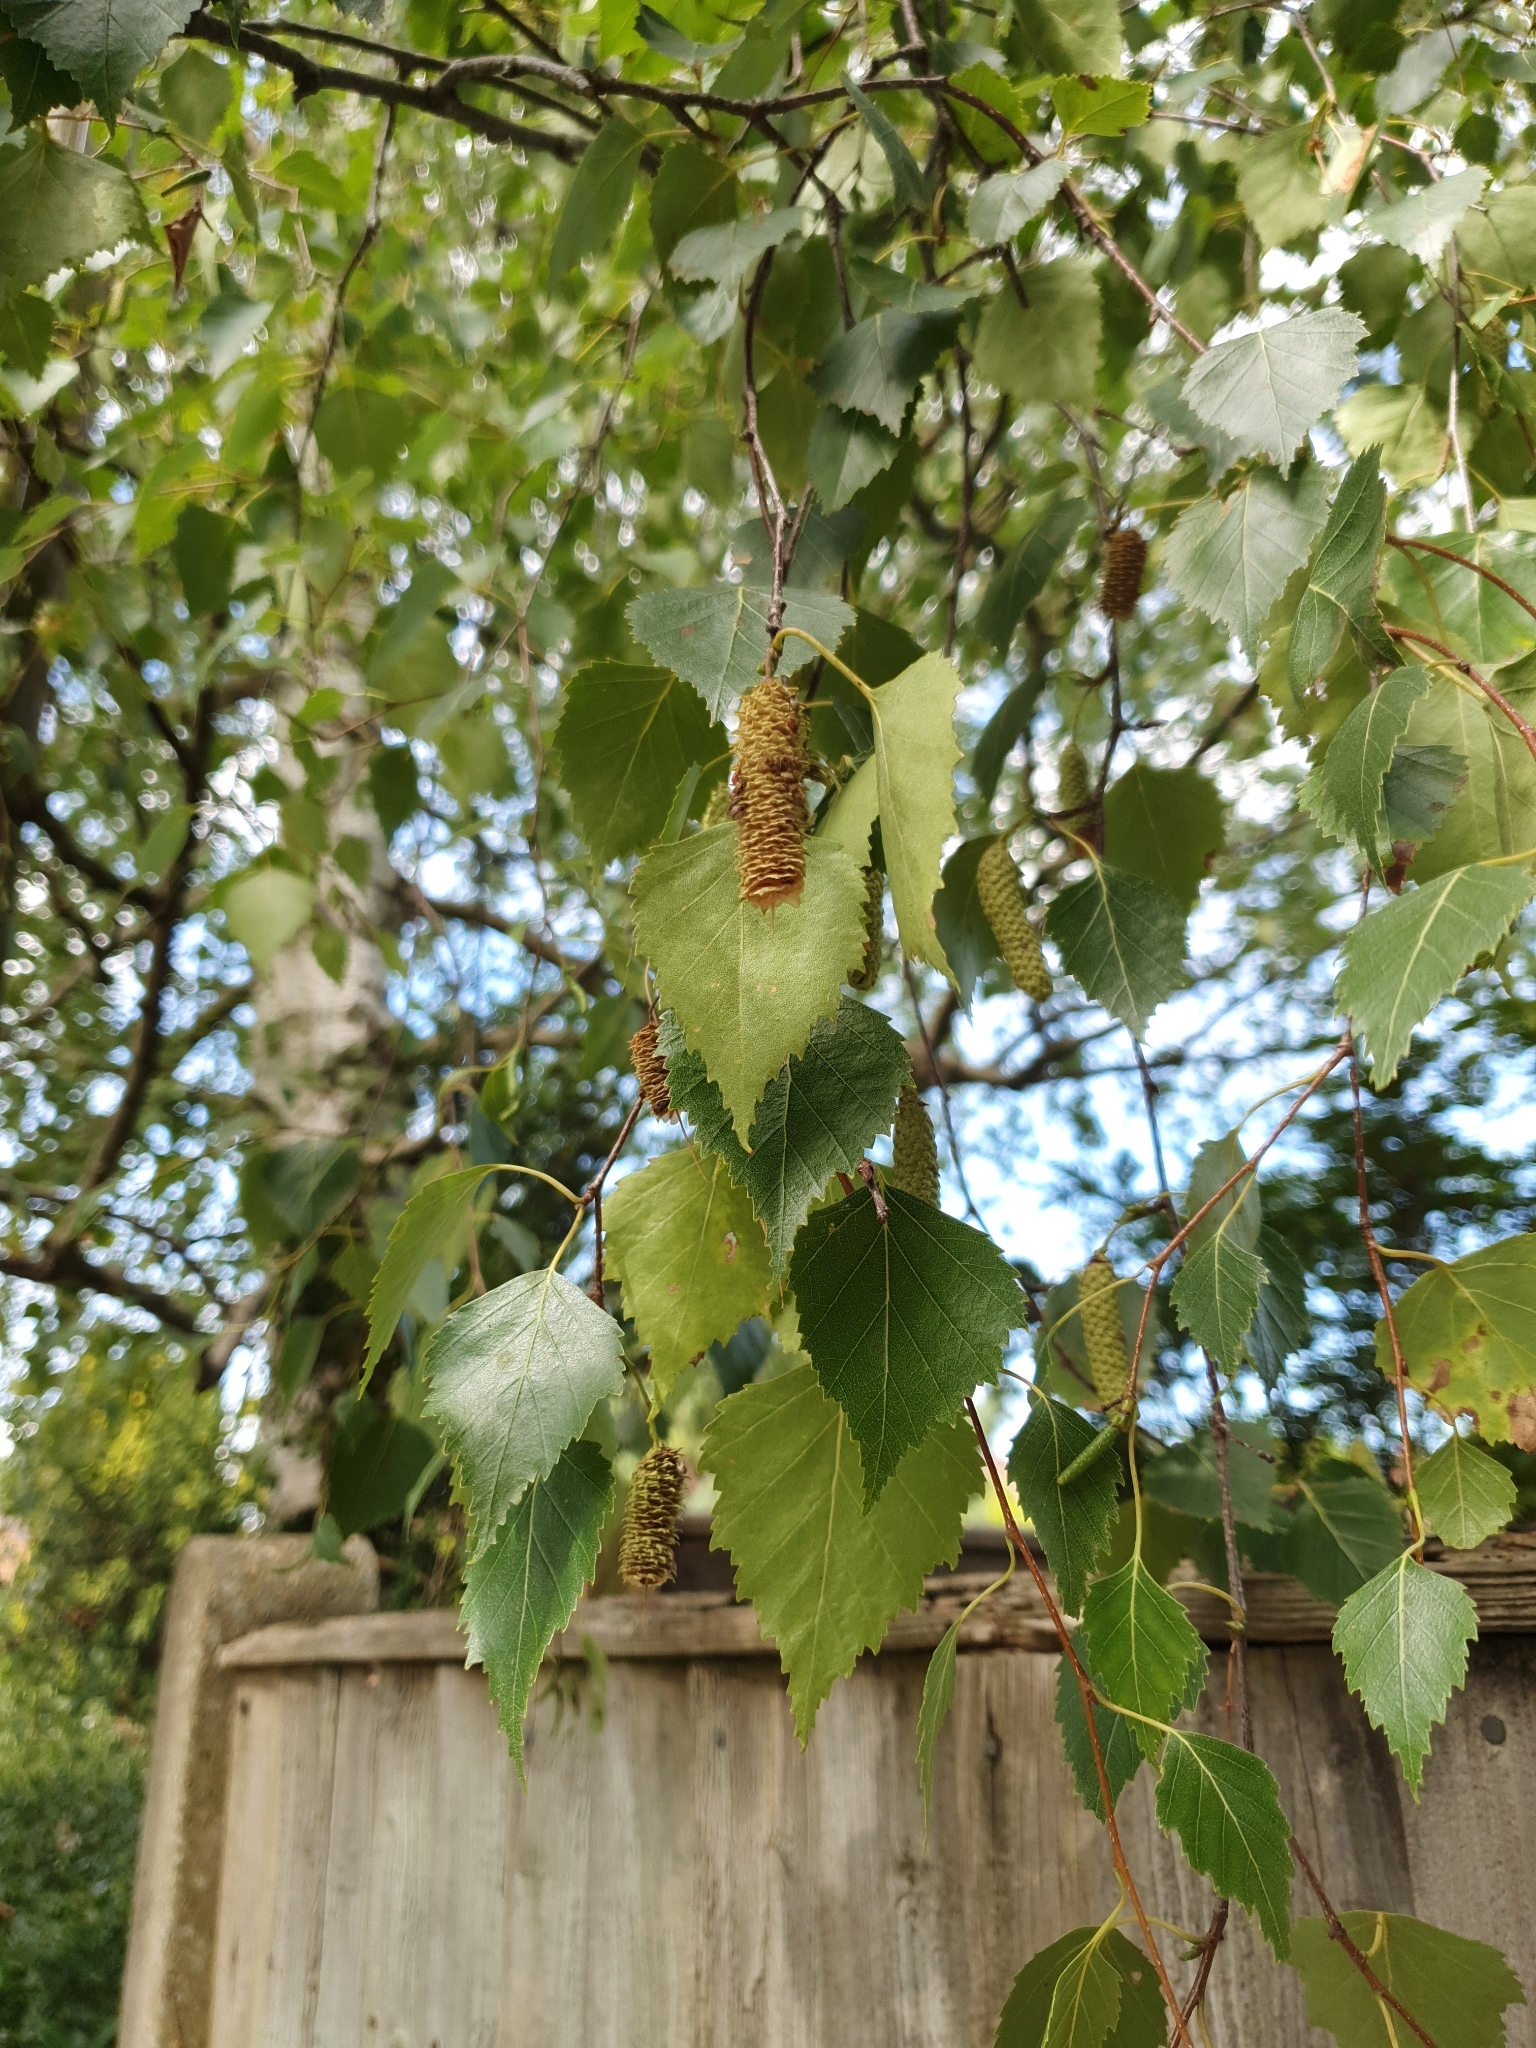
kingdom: Plantae
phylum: Tracheophyta
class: Magnoliopsida
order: Fagales
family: Betulaceae
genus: Betula
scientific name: Betula pendula
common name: Silver birch
